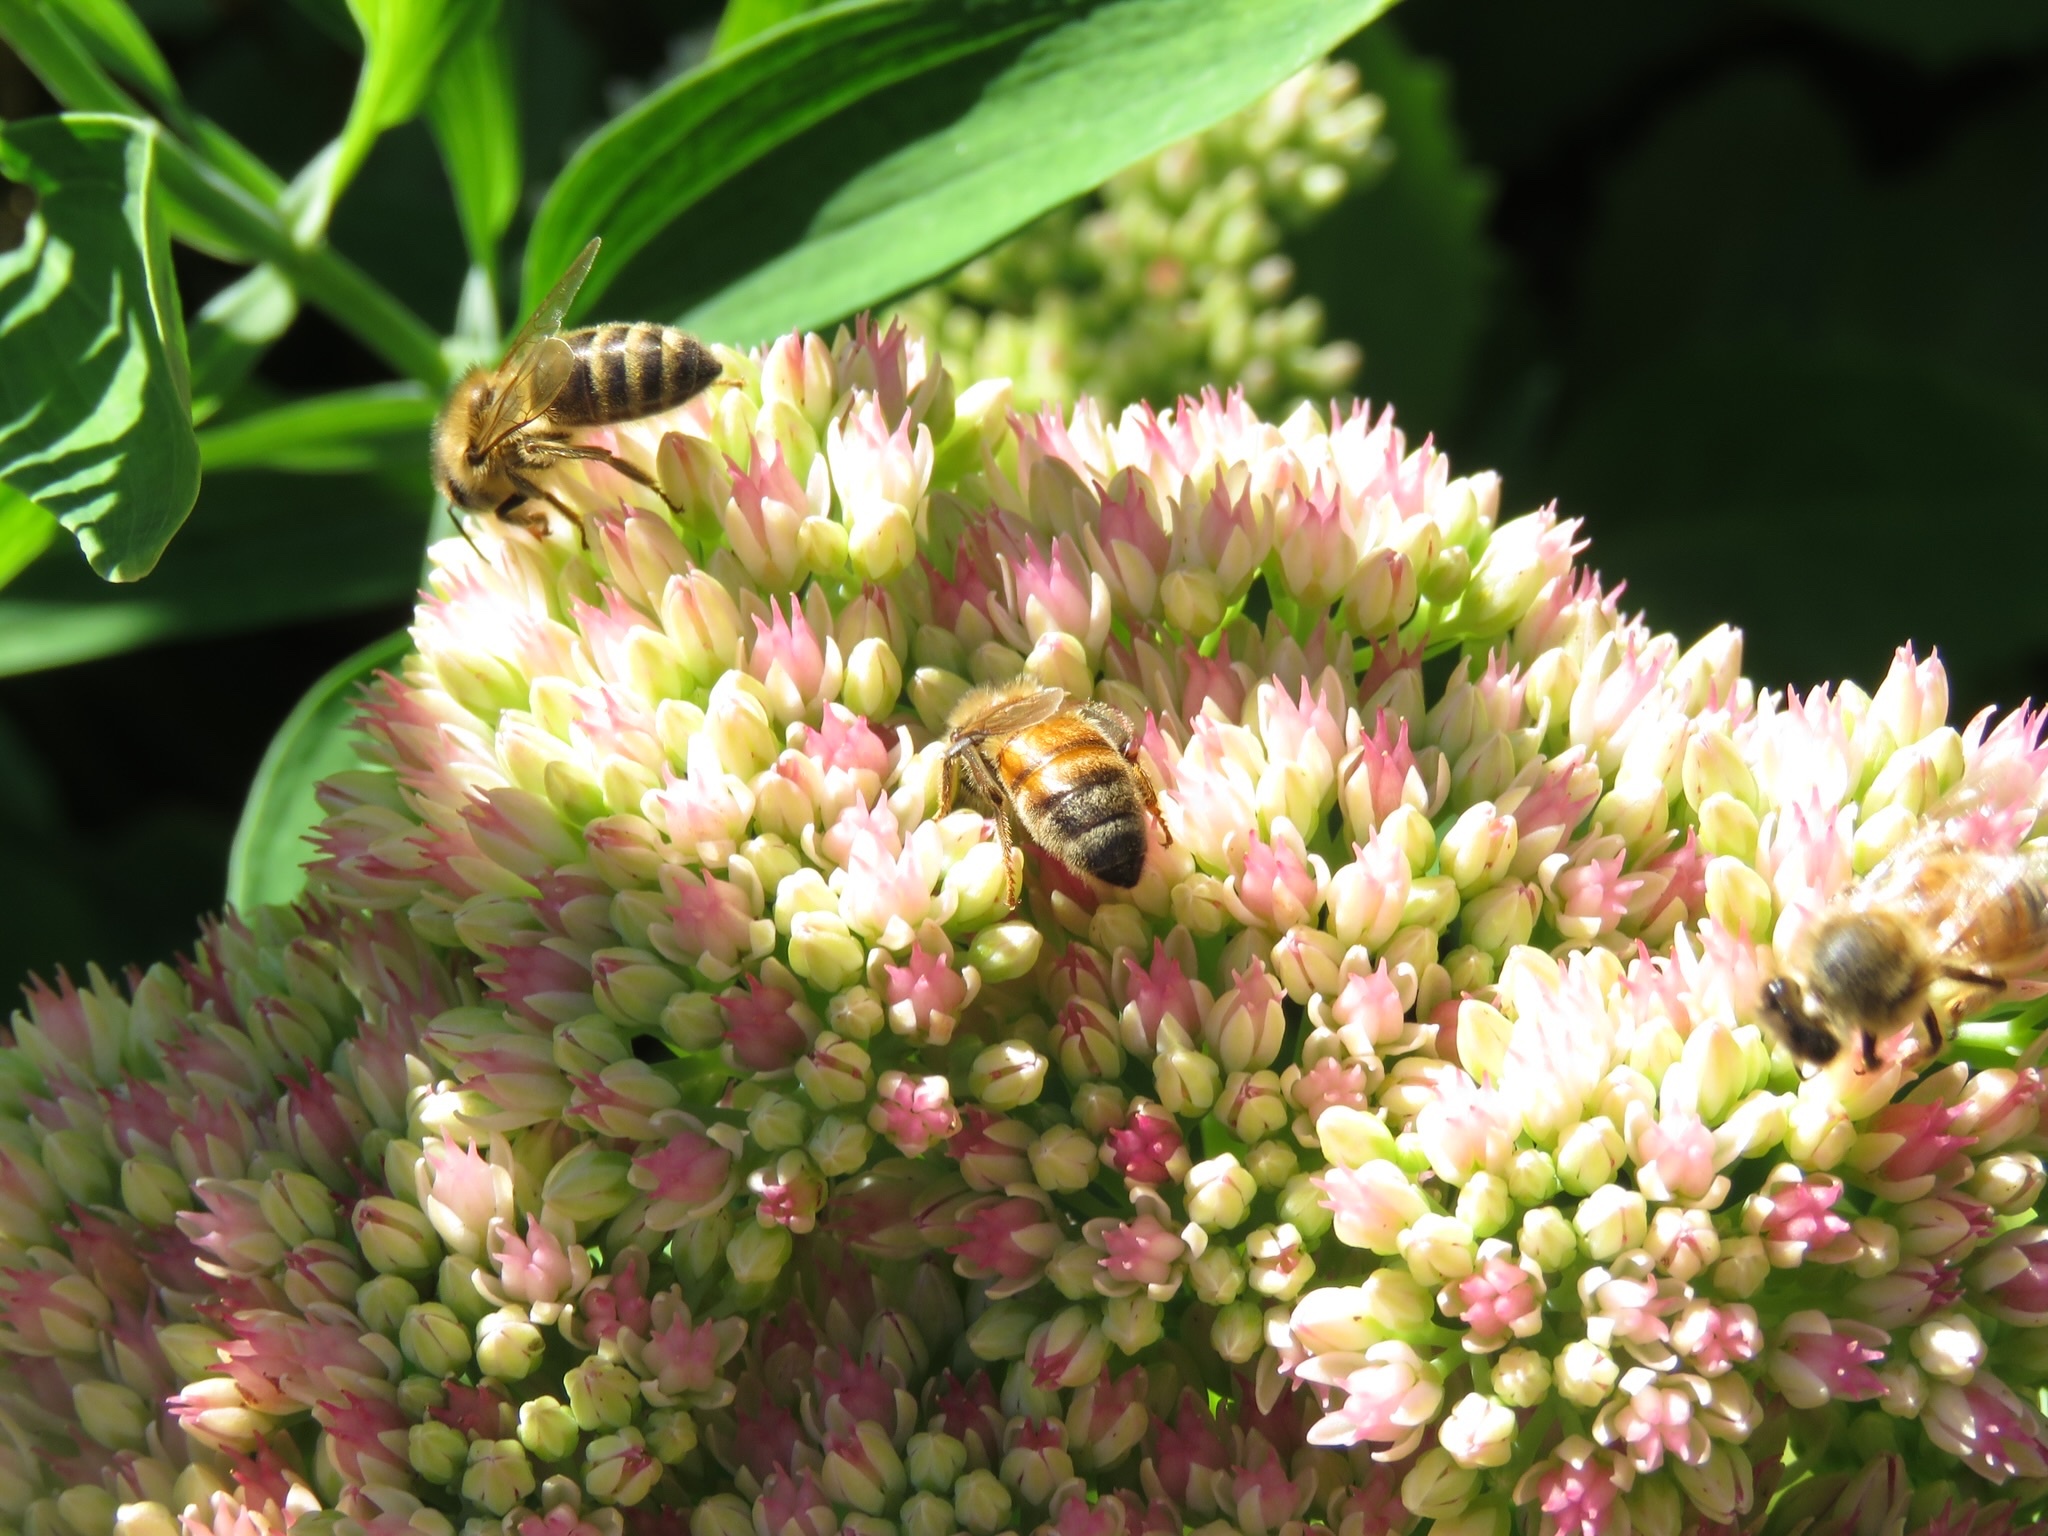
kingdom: Animalia
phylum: Arthropoda
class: Insecta
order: Hymenoptera
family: Apidae
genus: Apis
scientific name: Apis mellifera
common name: Honey bee
